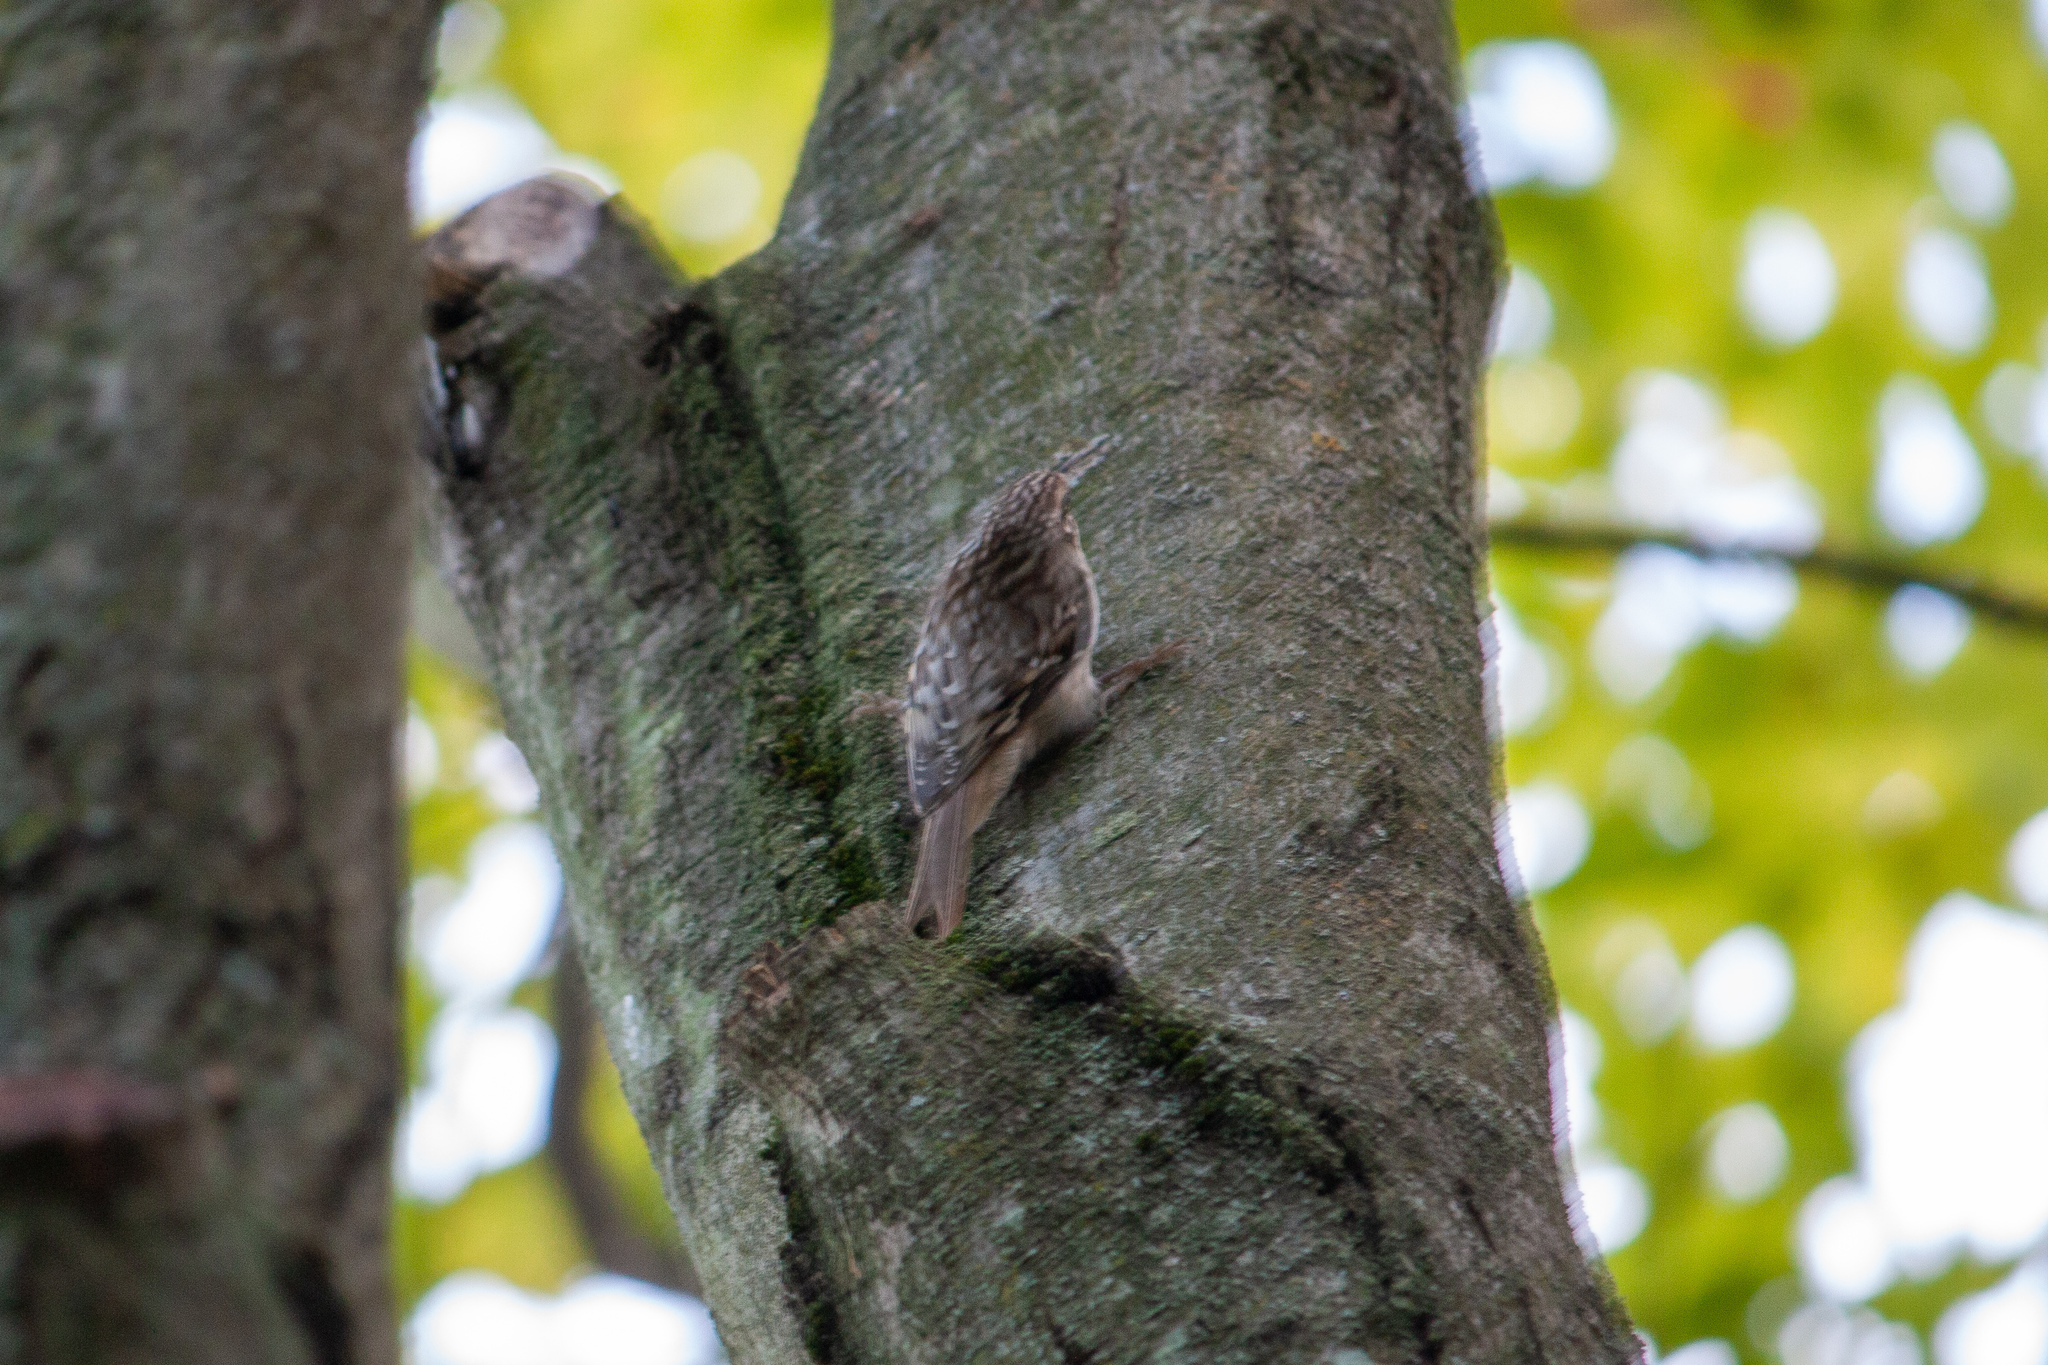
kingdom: Animalia
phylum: Chordata
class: Aves
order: Passeriformes
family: Certhiidae
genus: Certhia
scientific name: Certhia americana
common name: Brown creeper
